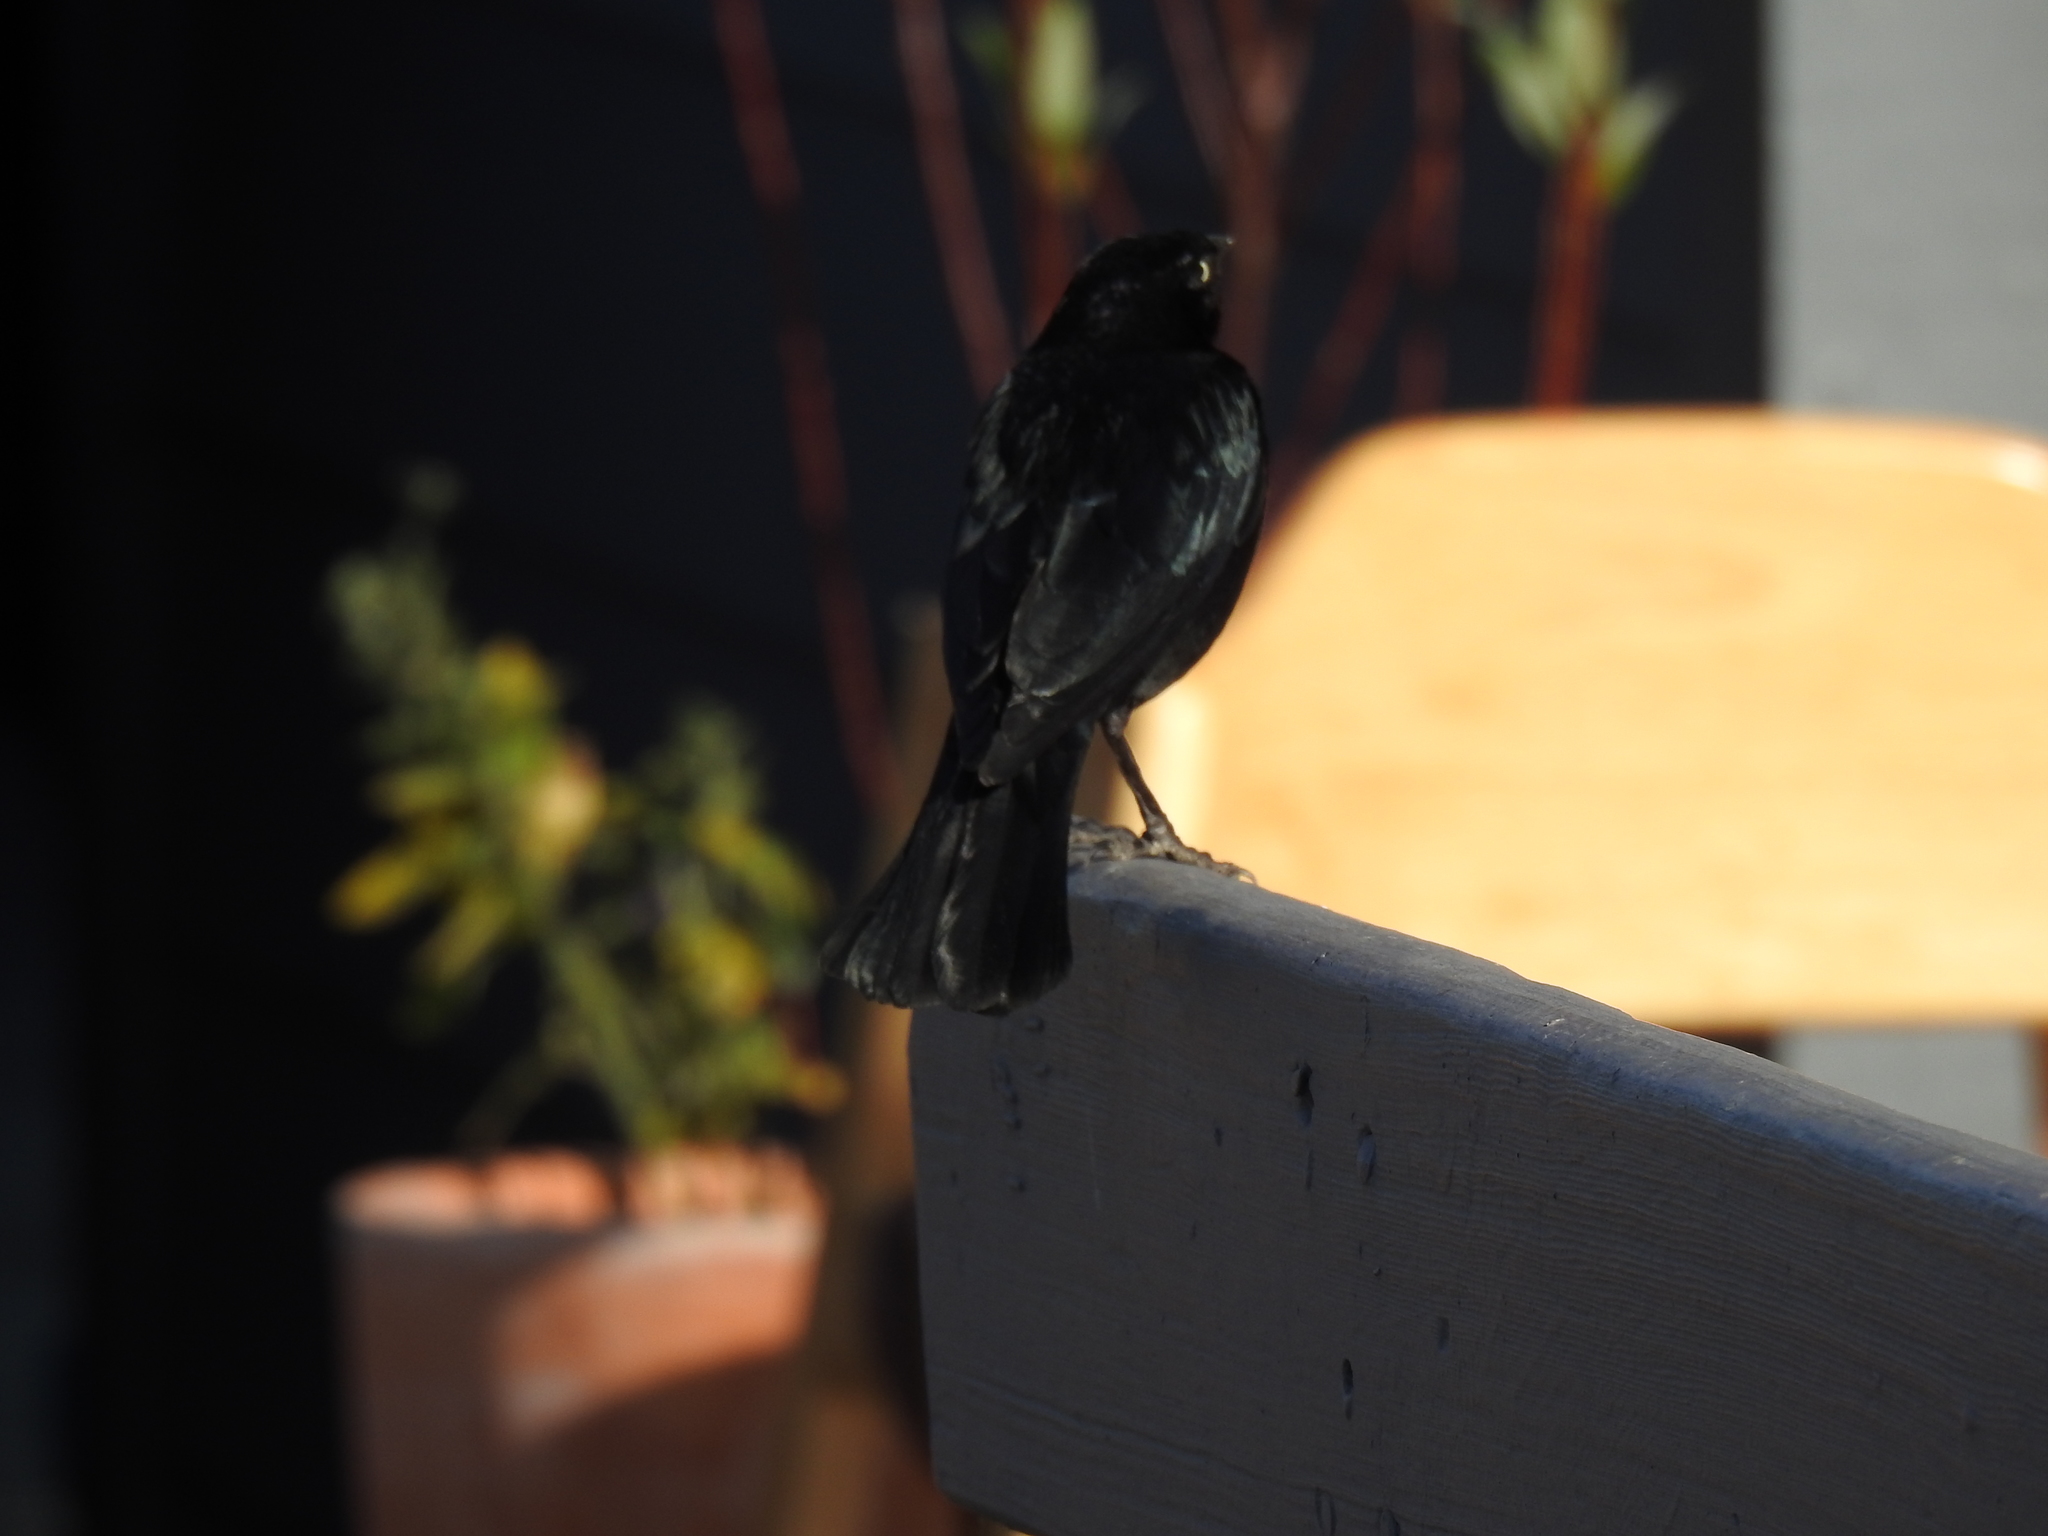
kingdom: Animalia
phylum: Chordata
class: Aves
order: Passeriformes
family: Icteridae
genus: Euphagus
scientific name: Euphagus cyanocephalus
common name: Brewer's blackbird
